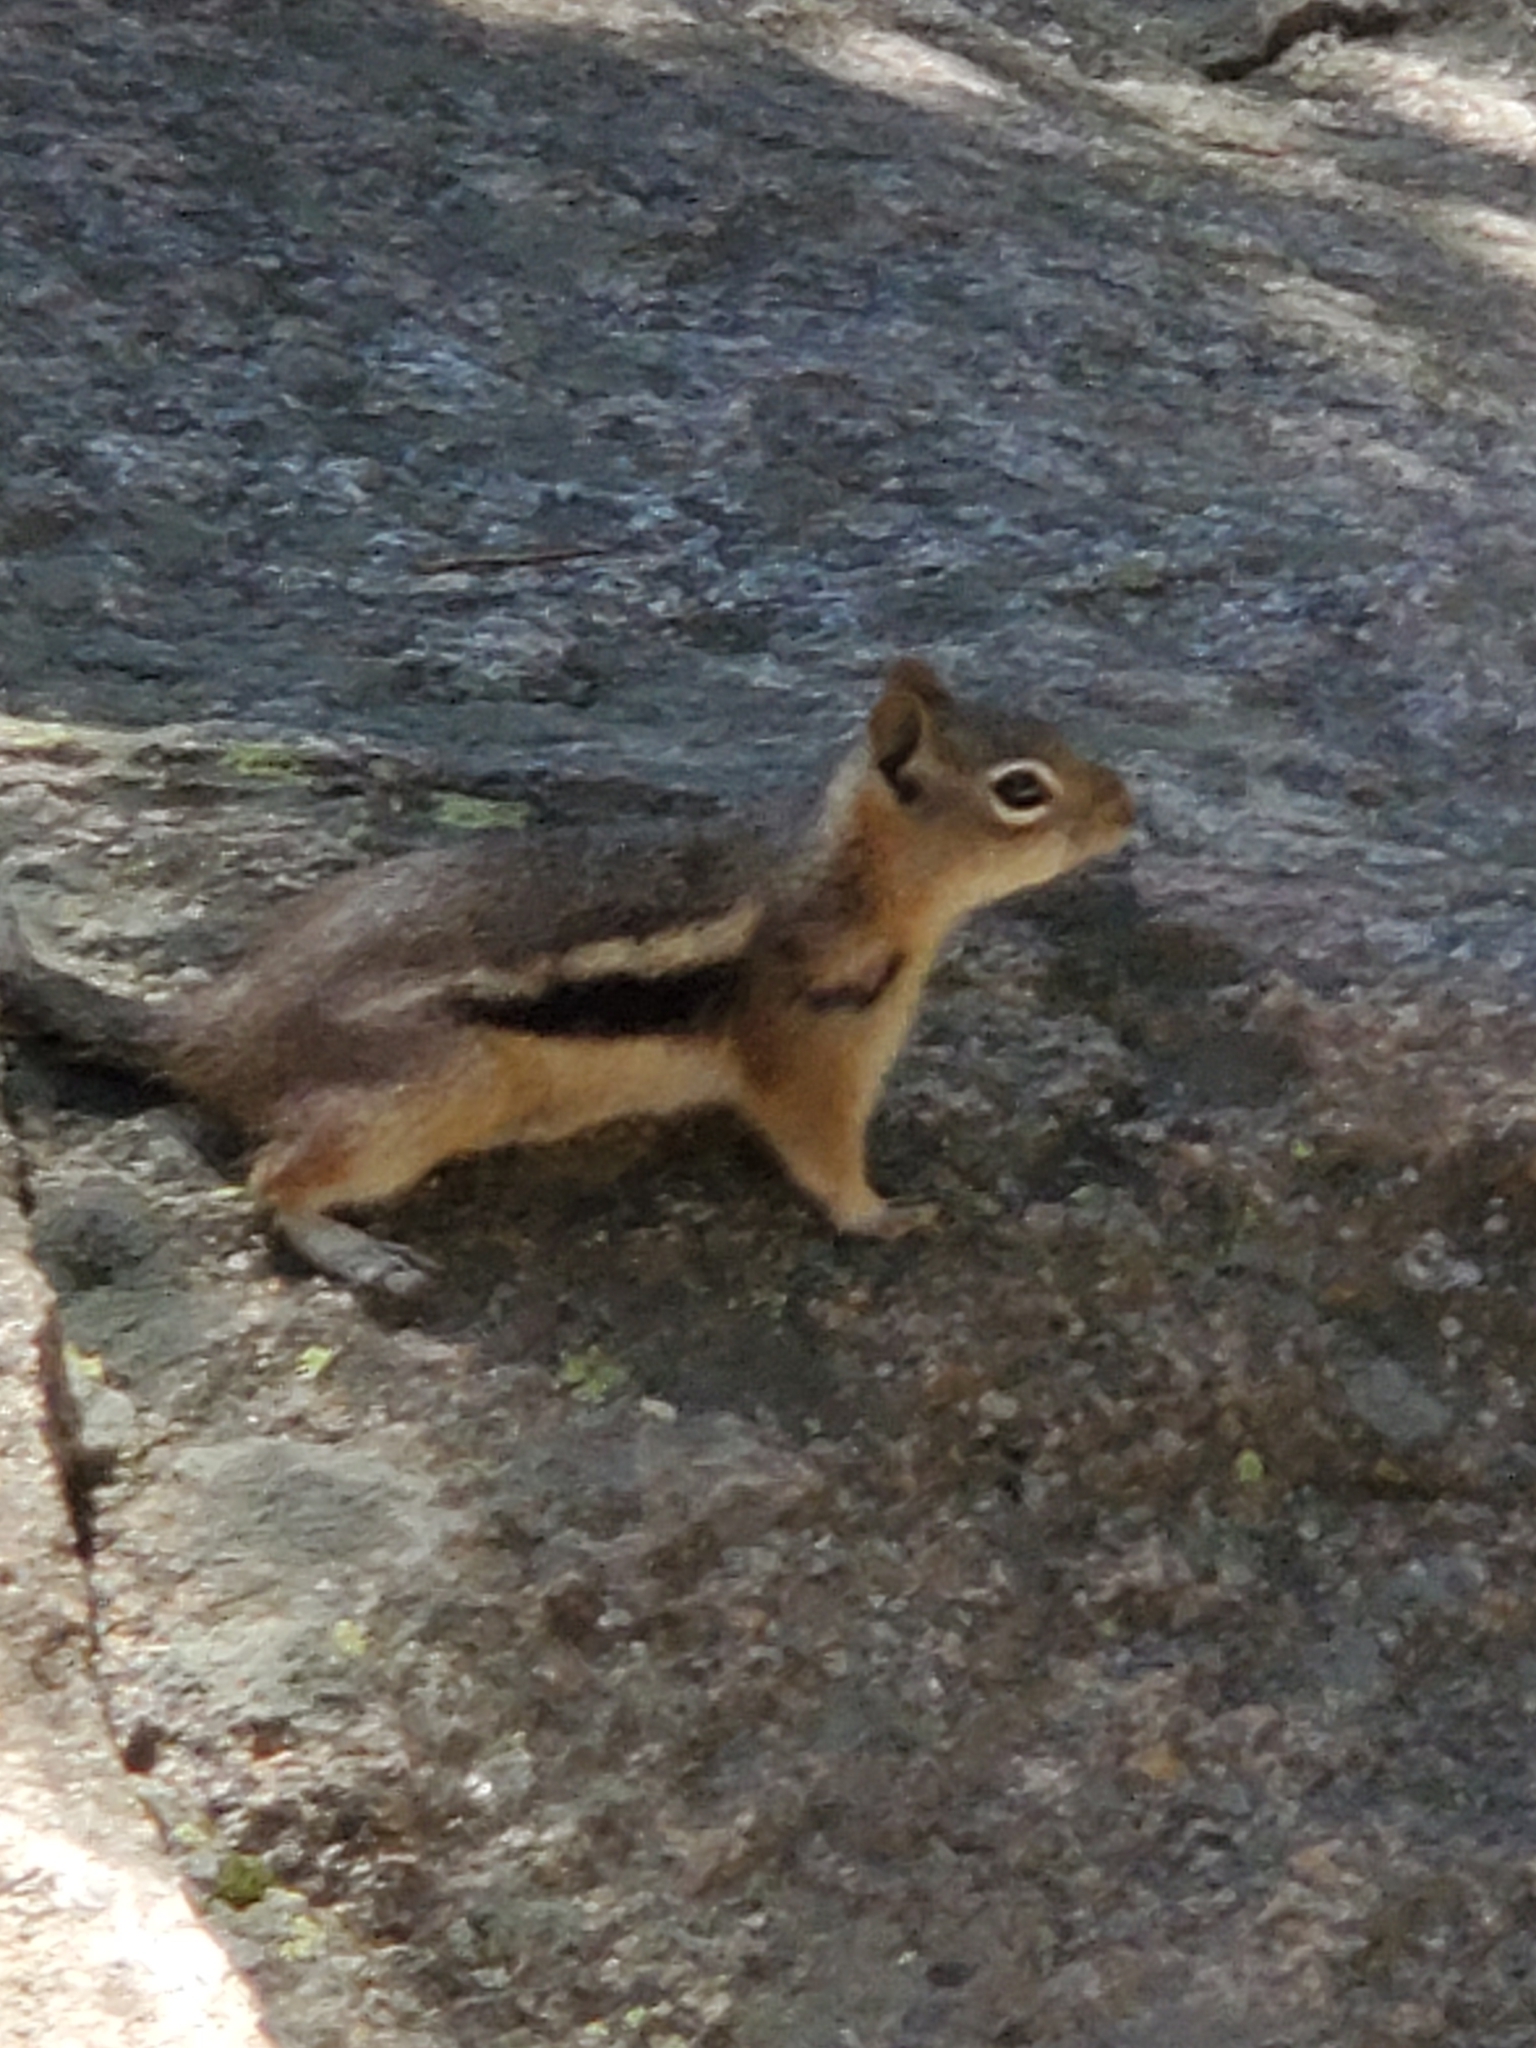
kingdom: Animalia
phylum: Chordata
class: Mammalia
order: Rodentia
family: Sciuridae
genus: Callospermophilus
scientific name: Callospermophilus lateralis
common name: Golden-mantled ground squirrel
